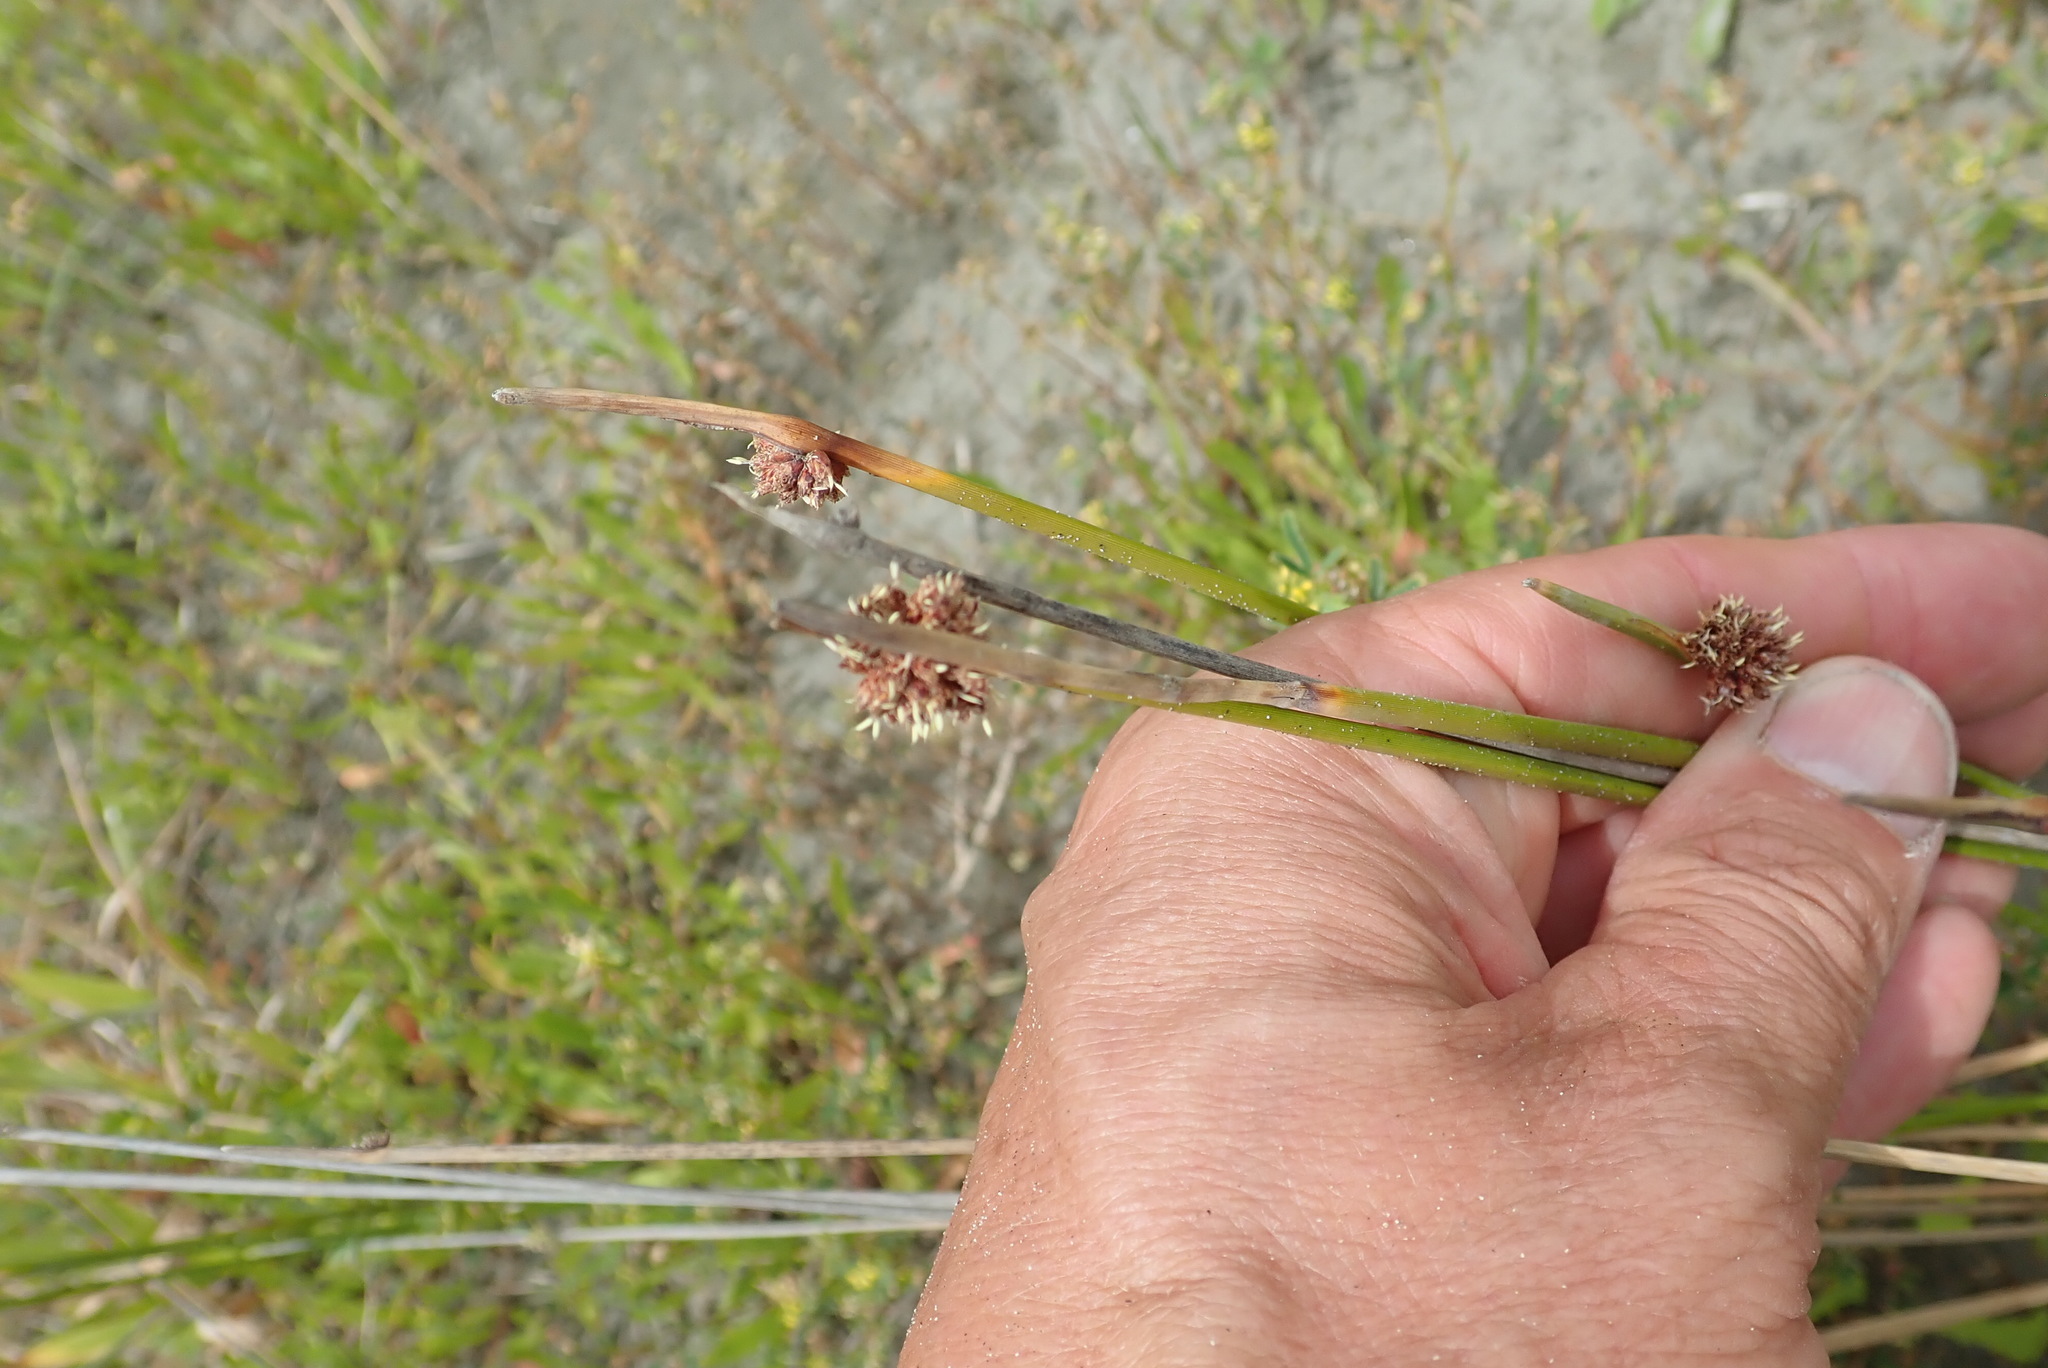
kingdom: Plantae
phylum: Tracheophyta
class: Liliopsida
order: Poales
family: Cyperaceae
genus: Ficinia
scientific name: Ficinia nodosa
